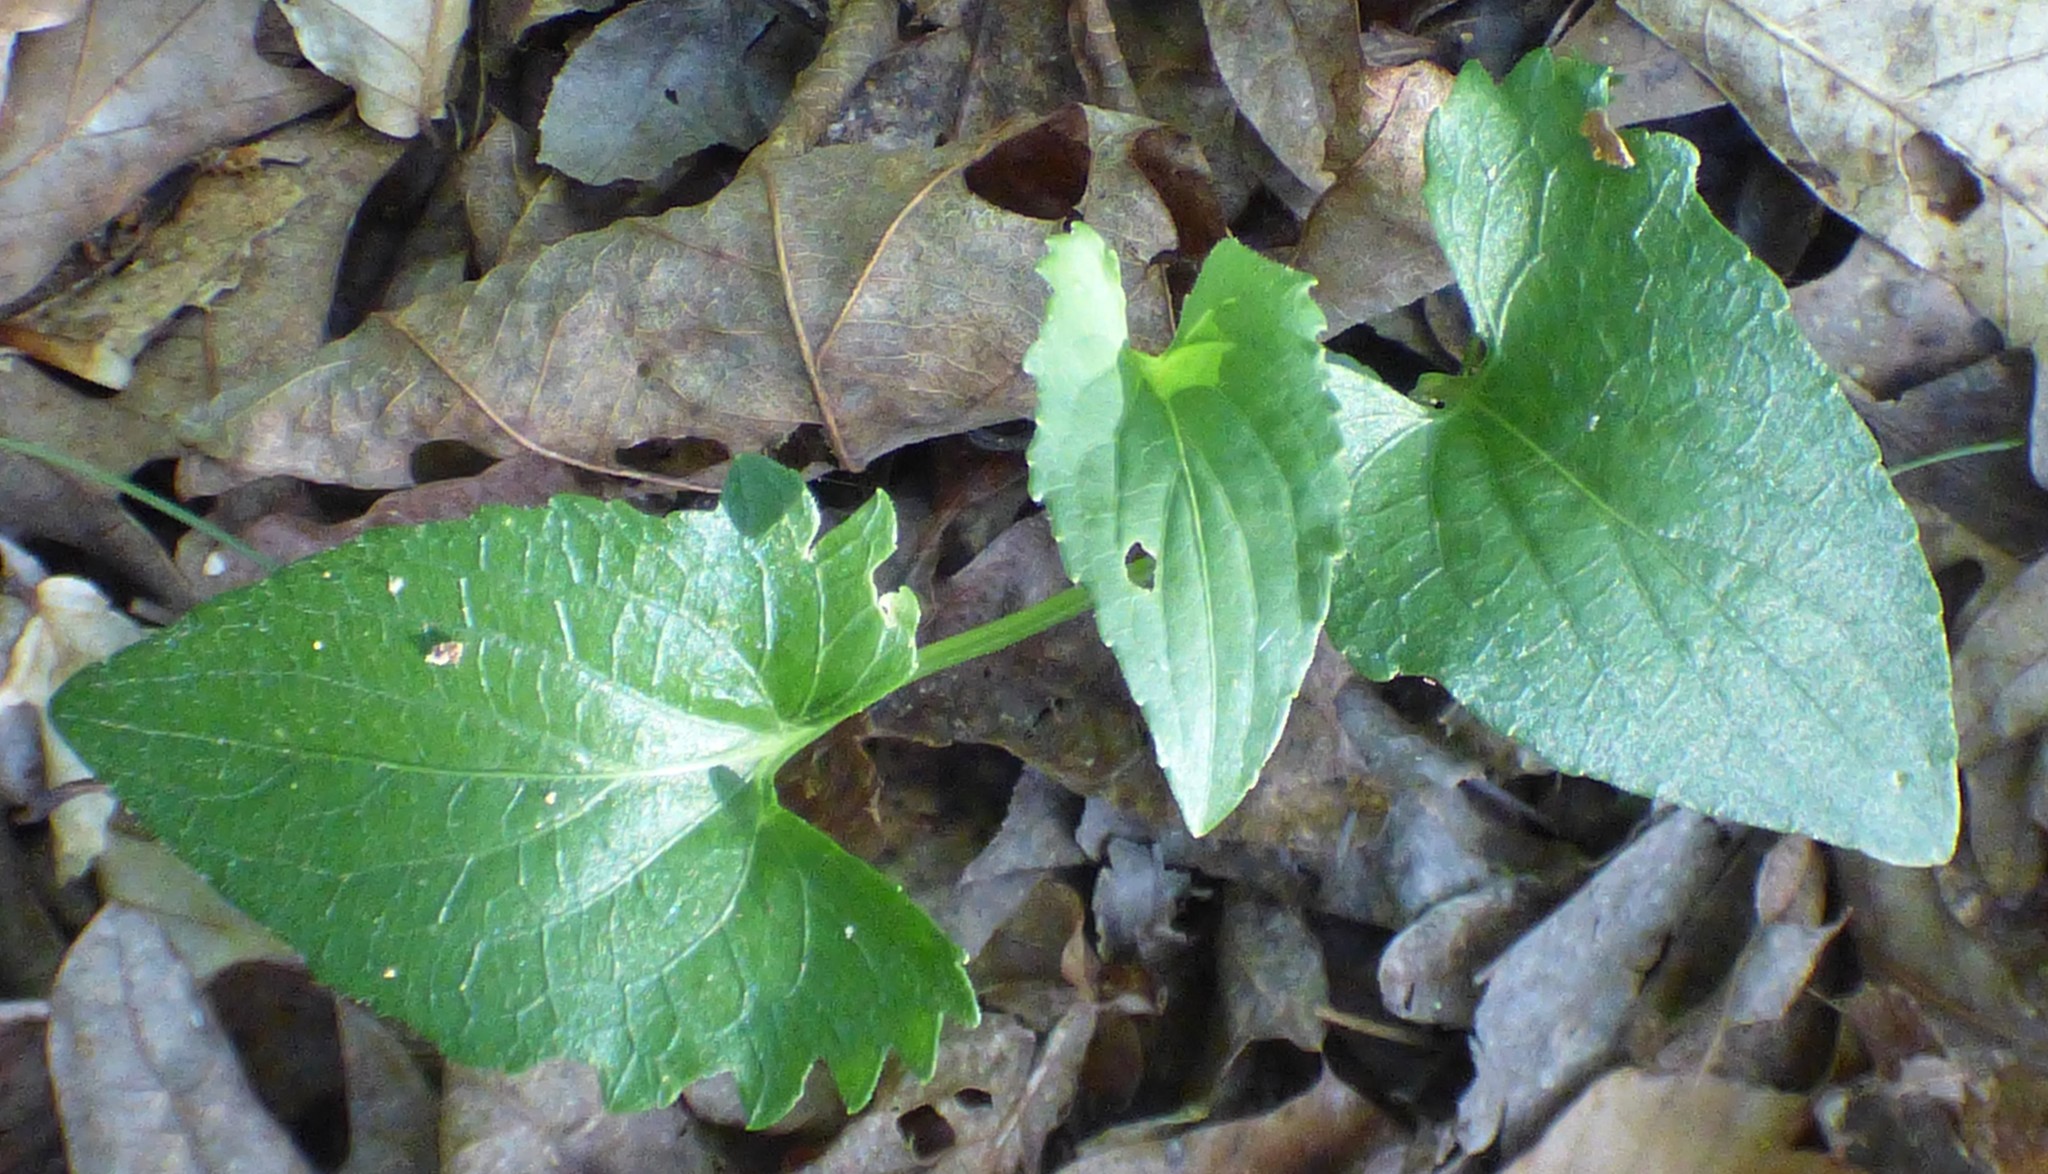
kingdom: Plantae
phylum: Tracheophyta
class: Magnoliopsida
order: Malpighiales
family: Violaceae
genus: Viola
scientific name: Viola sagittata
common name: Arrowhead violet
